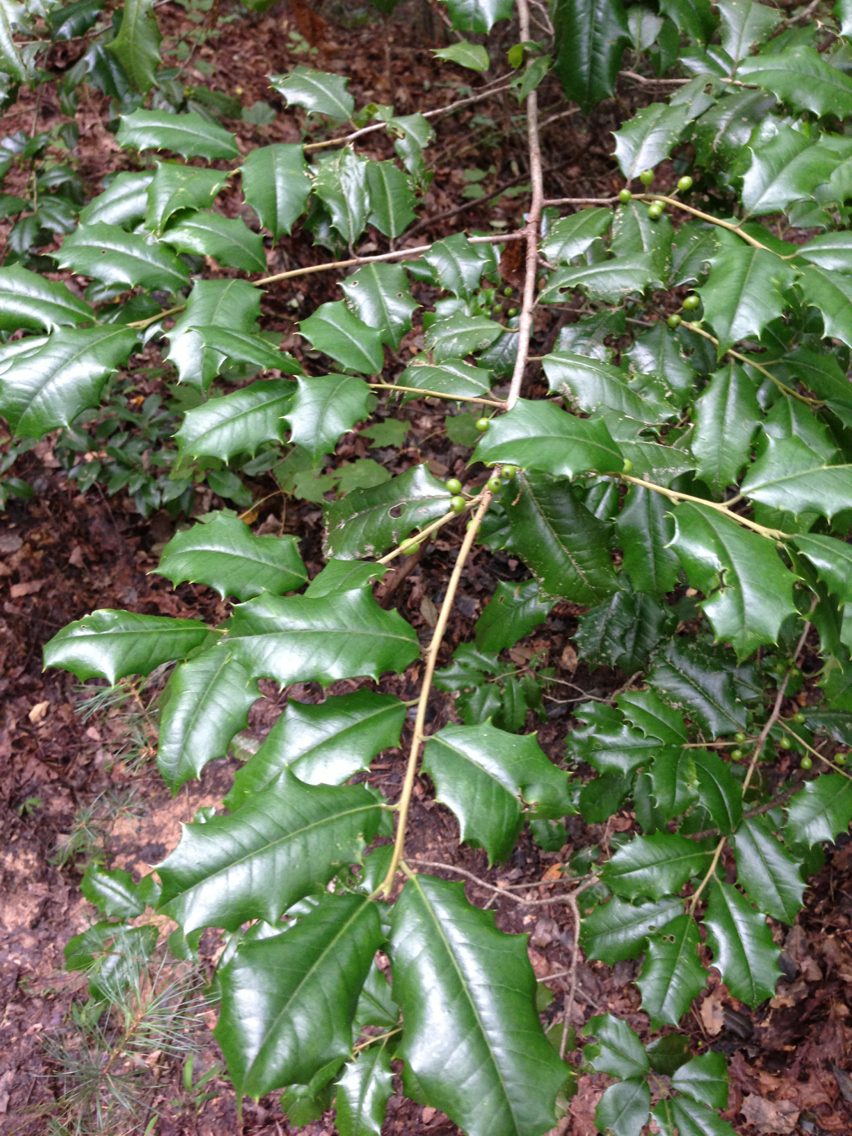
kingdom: Plantae
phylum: Tracheophyta
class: Magnoliopsida
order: Aquifoliales
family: Aquifoliaceae
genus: Ilex
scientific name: Ilex opaca
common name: American holly
